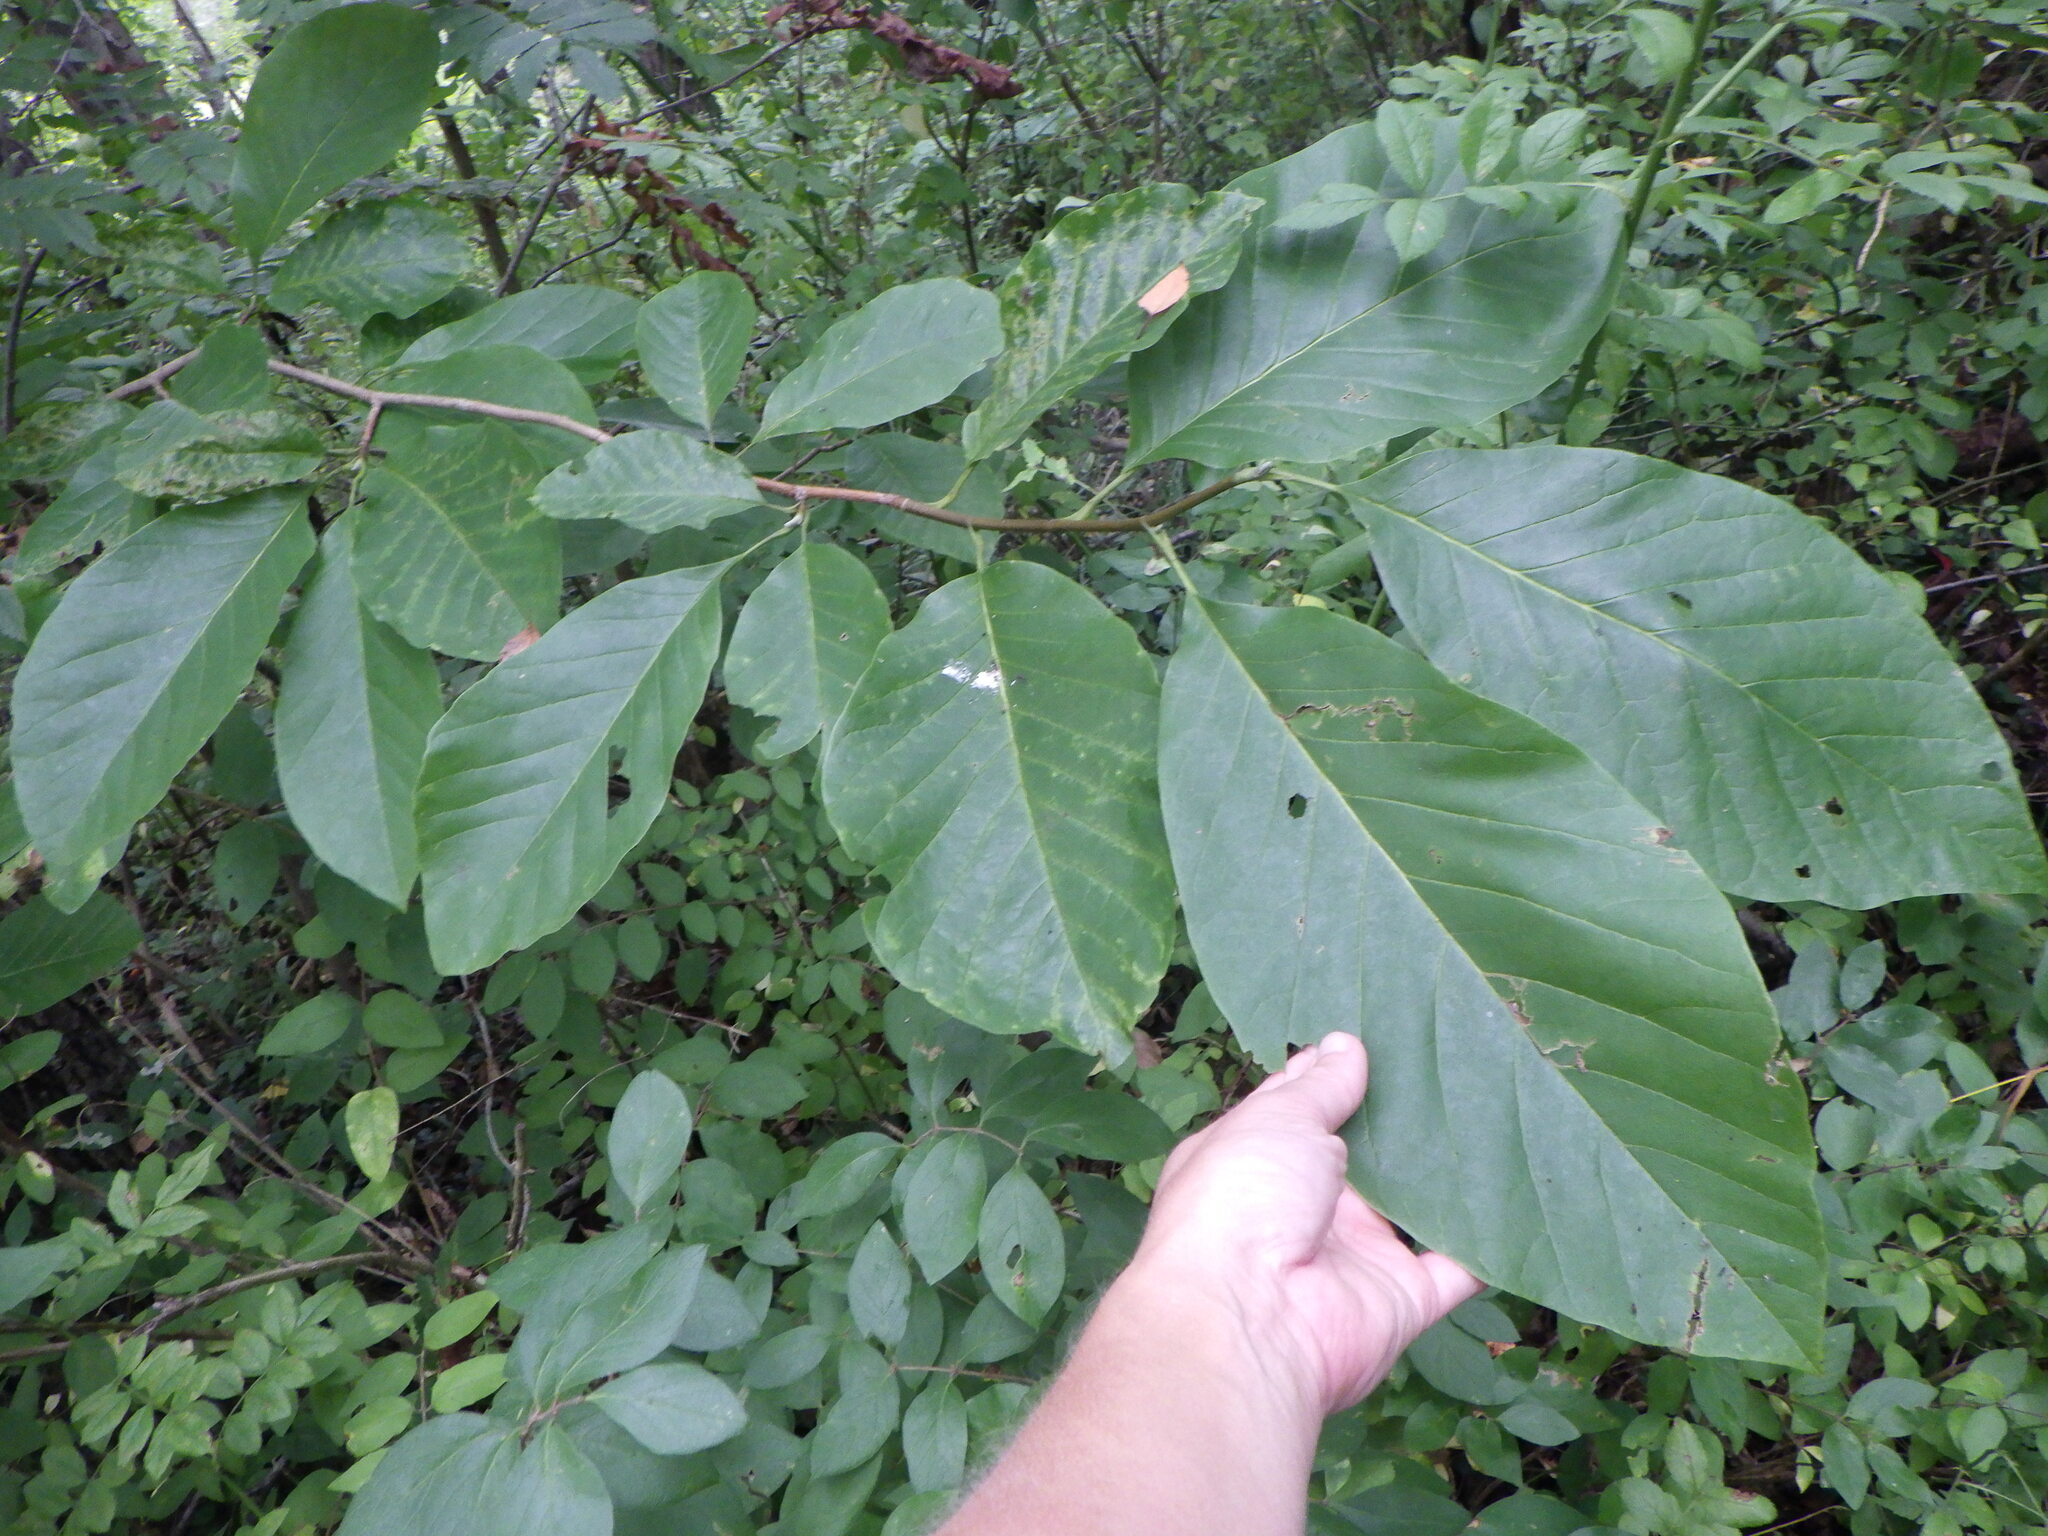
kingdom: Plantae
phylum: Tracheophyta
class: Magnoliopsida
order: Magnoliales
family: Magnoliaceae
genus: Magnolia
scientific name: Magnolia acuminata
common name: Cucumber magnolia
